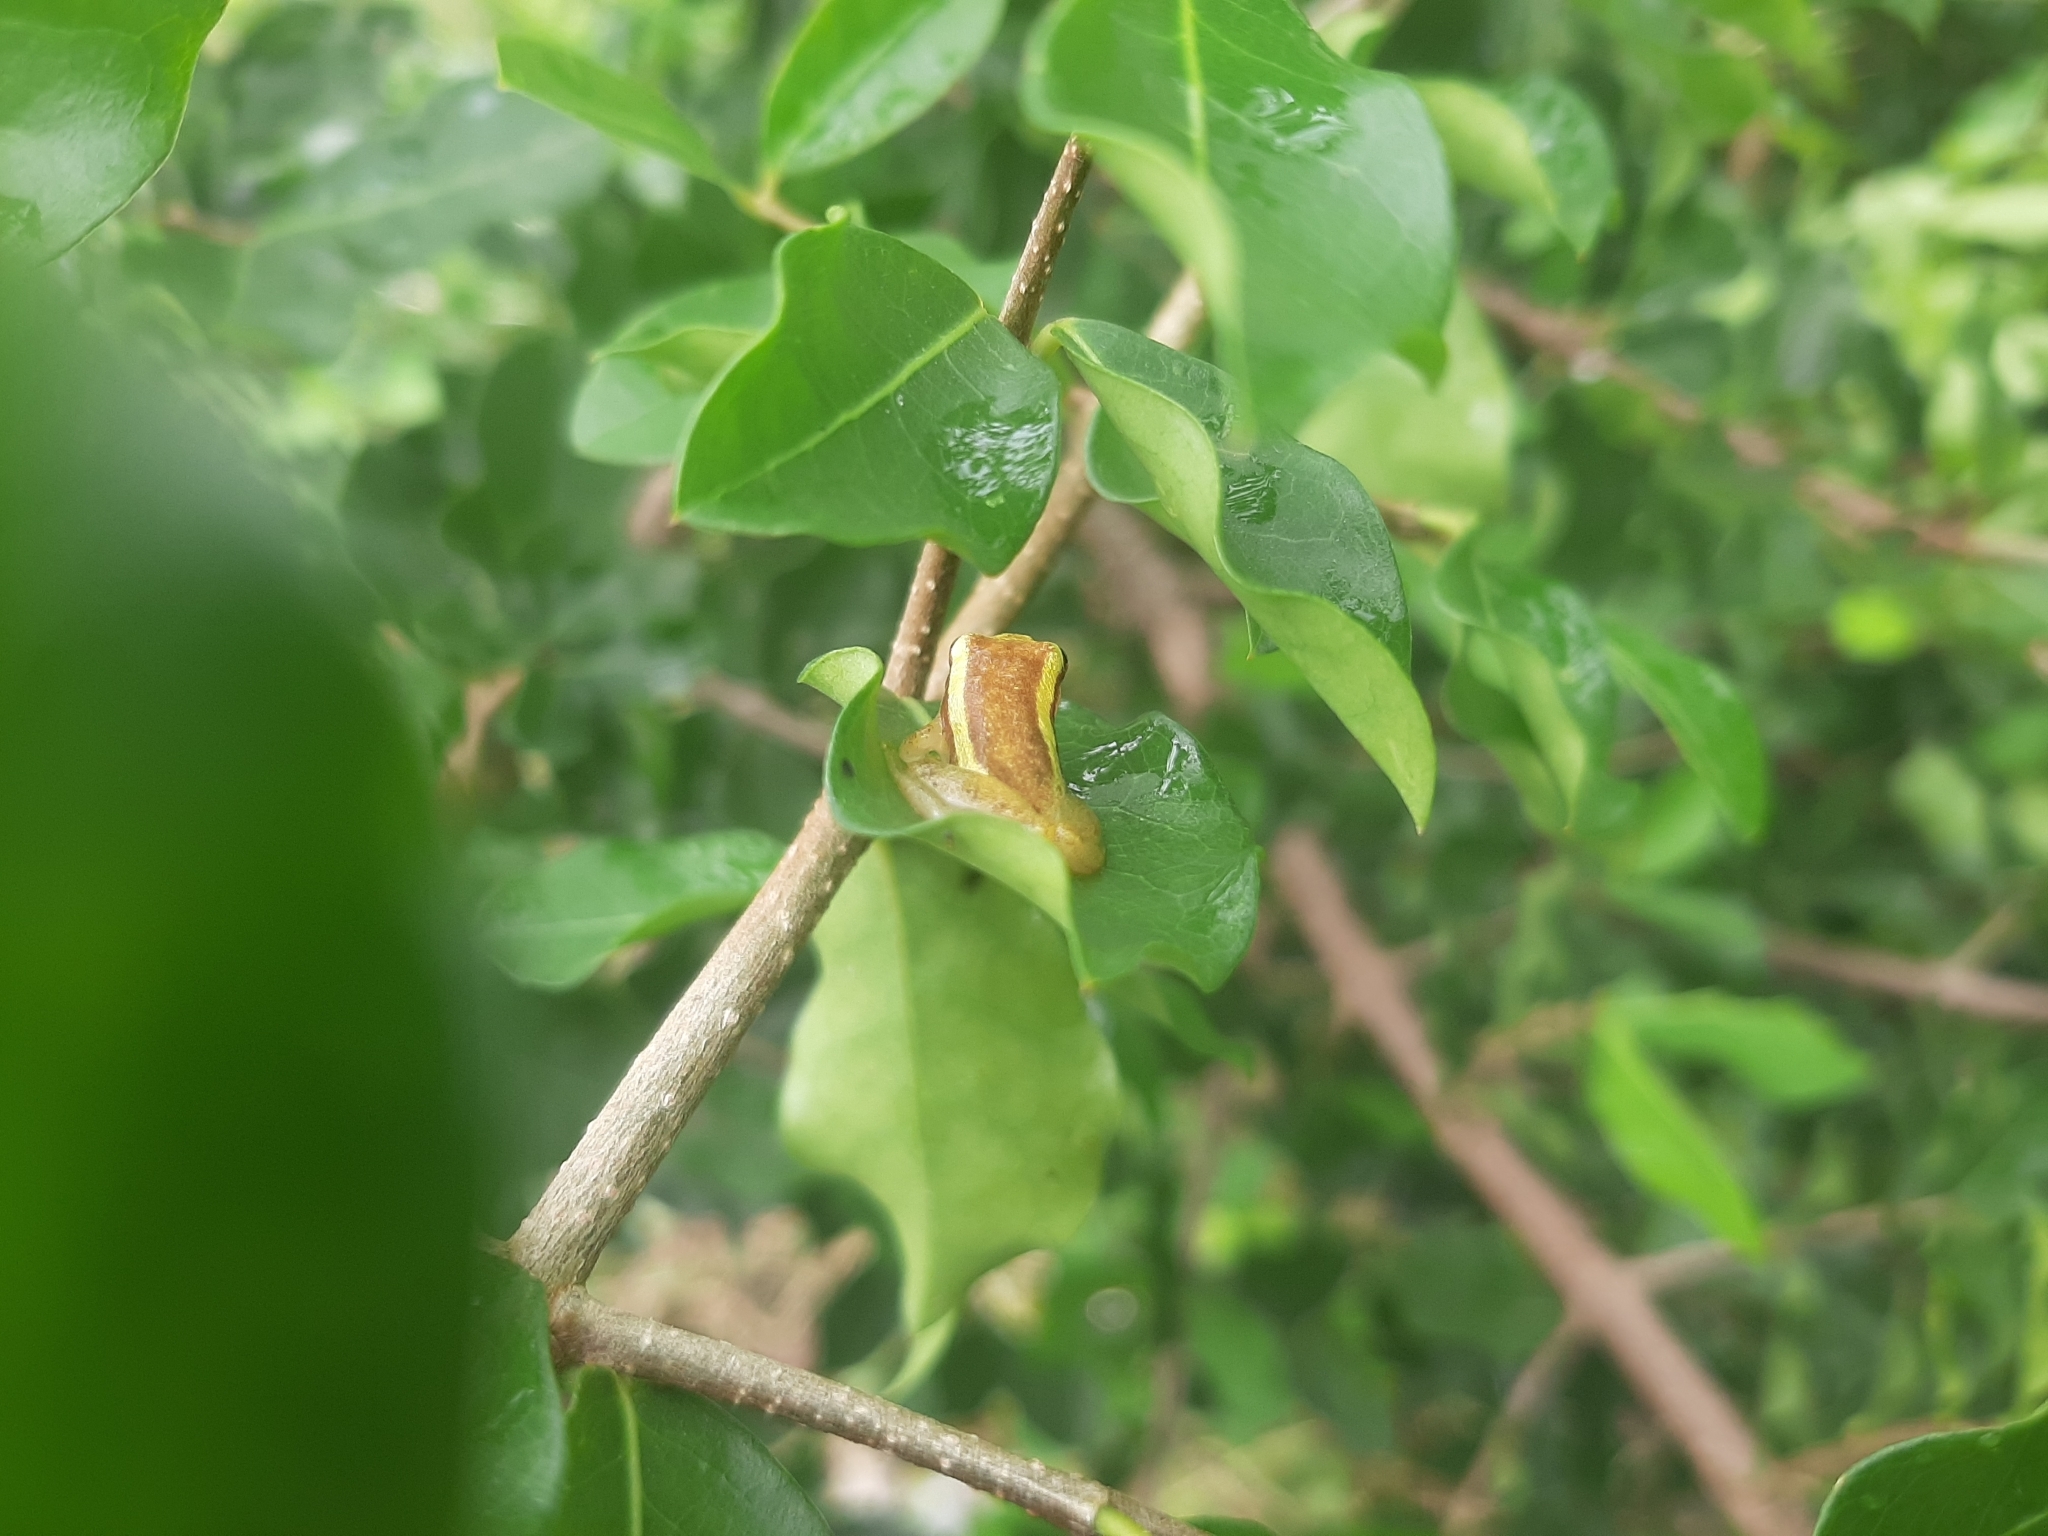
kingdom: Animalia
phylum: Chordata
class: Amphibia
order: Anura
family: Hylidae
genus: Dendropsophus
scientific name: Dendropsophus decipiens
